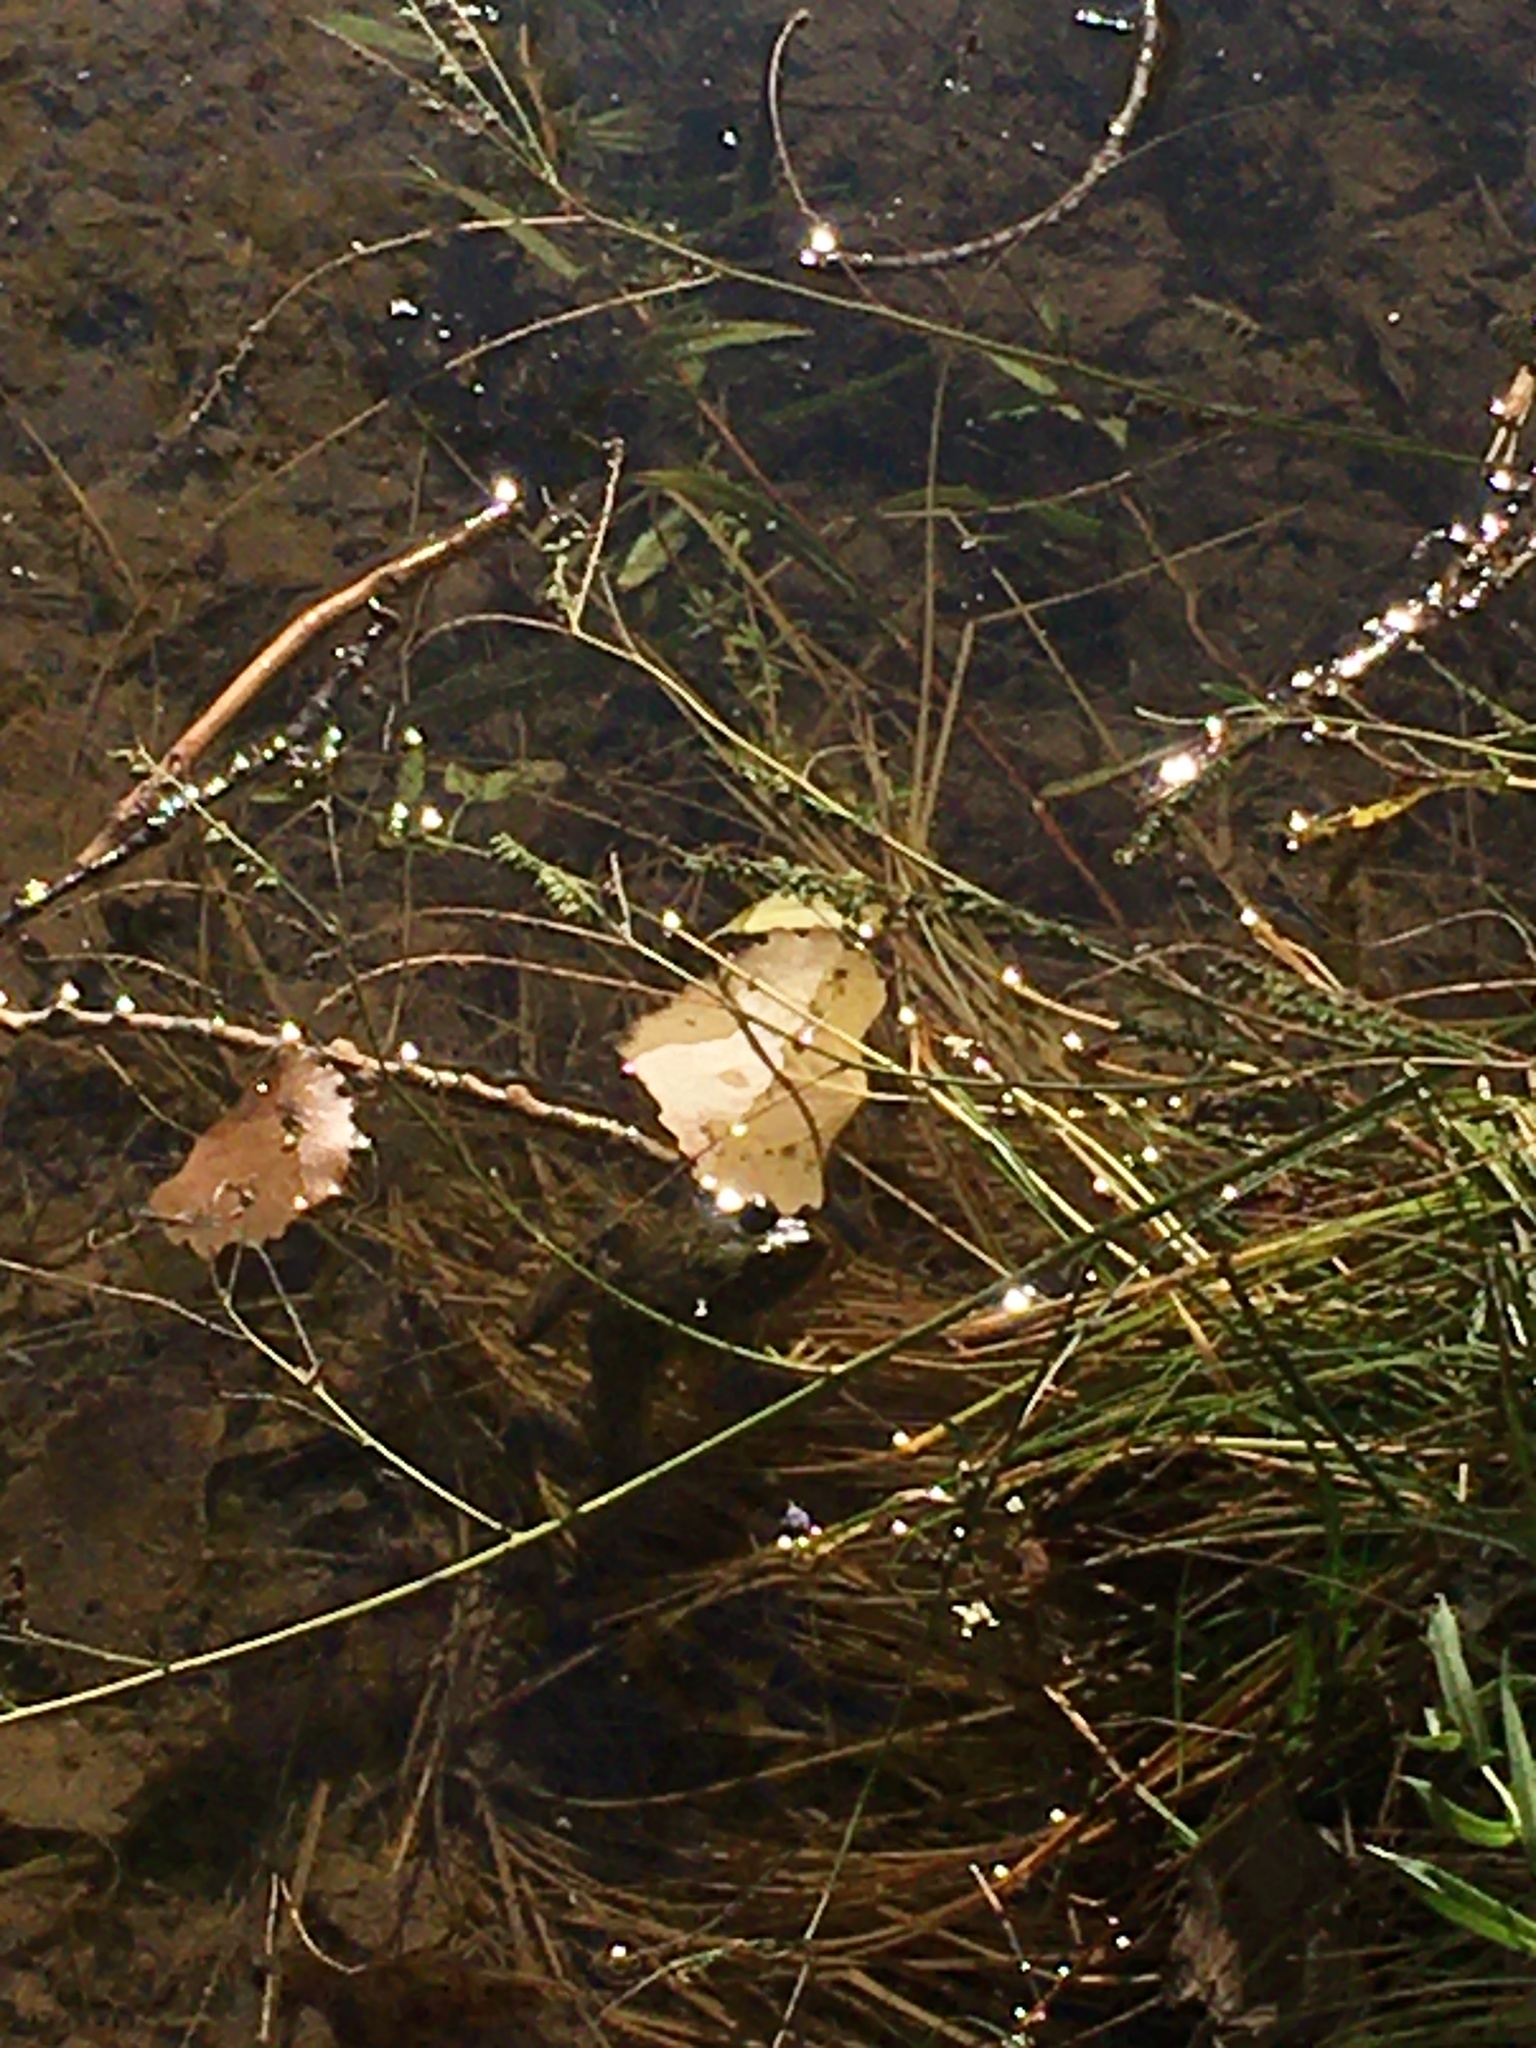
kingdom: Animalia
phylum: Chordata
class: Amphibia
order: Anura
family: Ranidae
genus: Lithobates
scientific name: Lithobates catesbeianus
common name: American bullfrog
